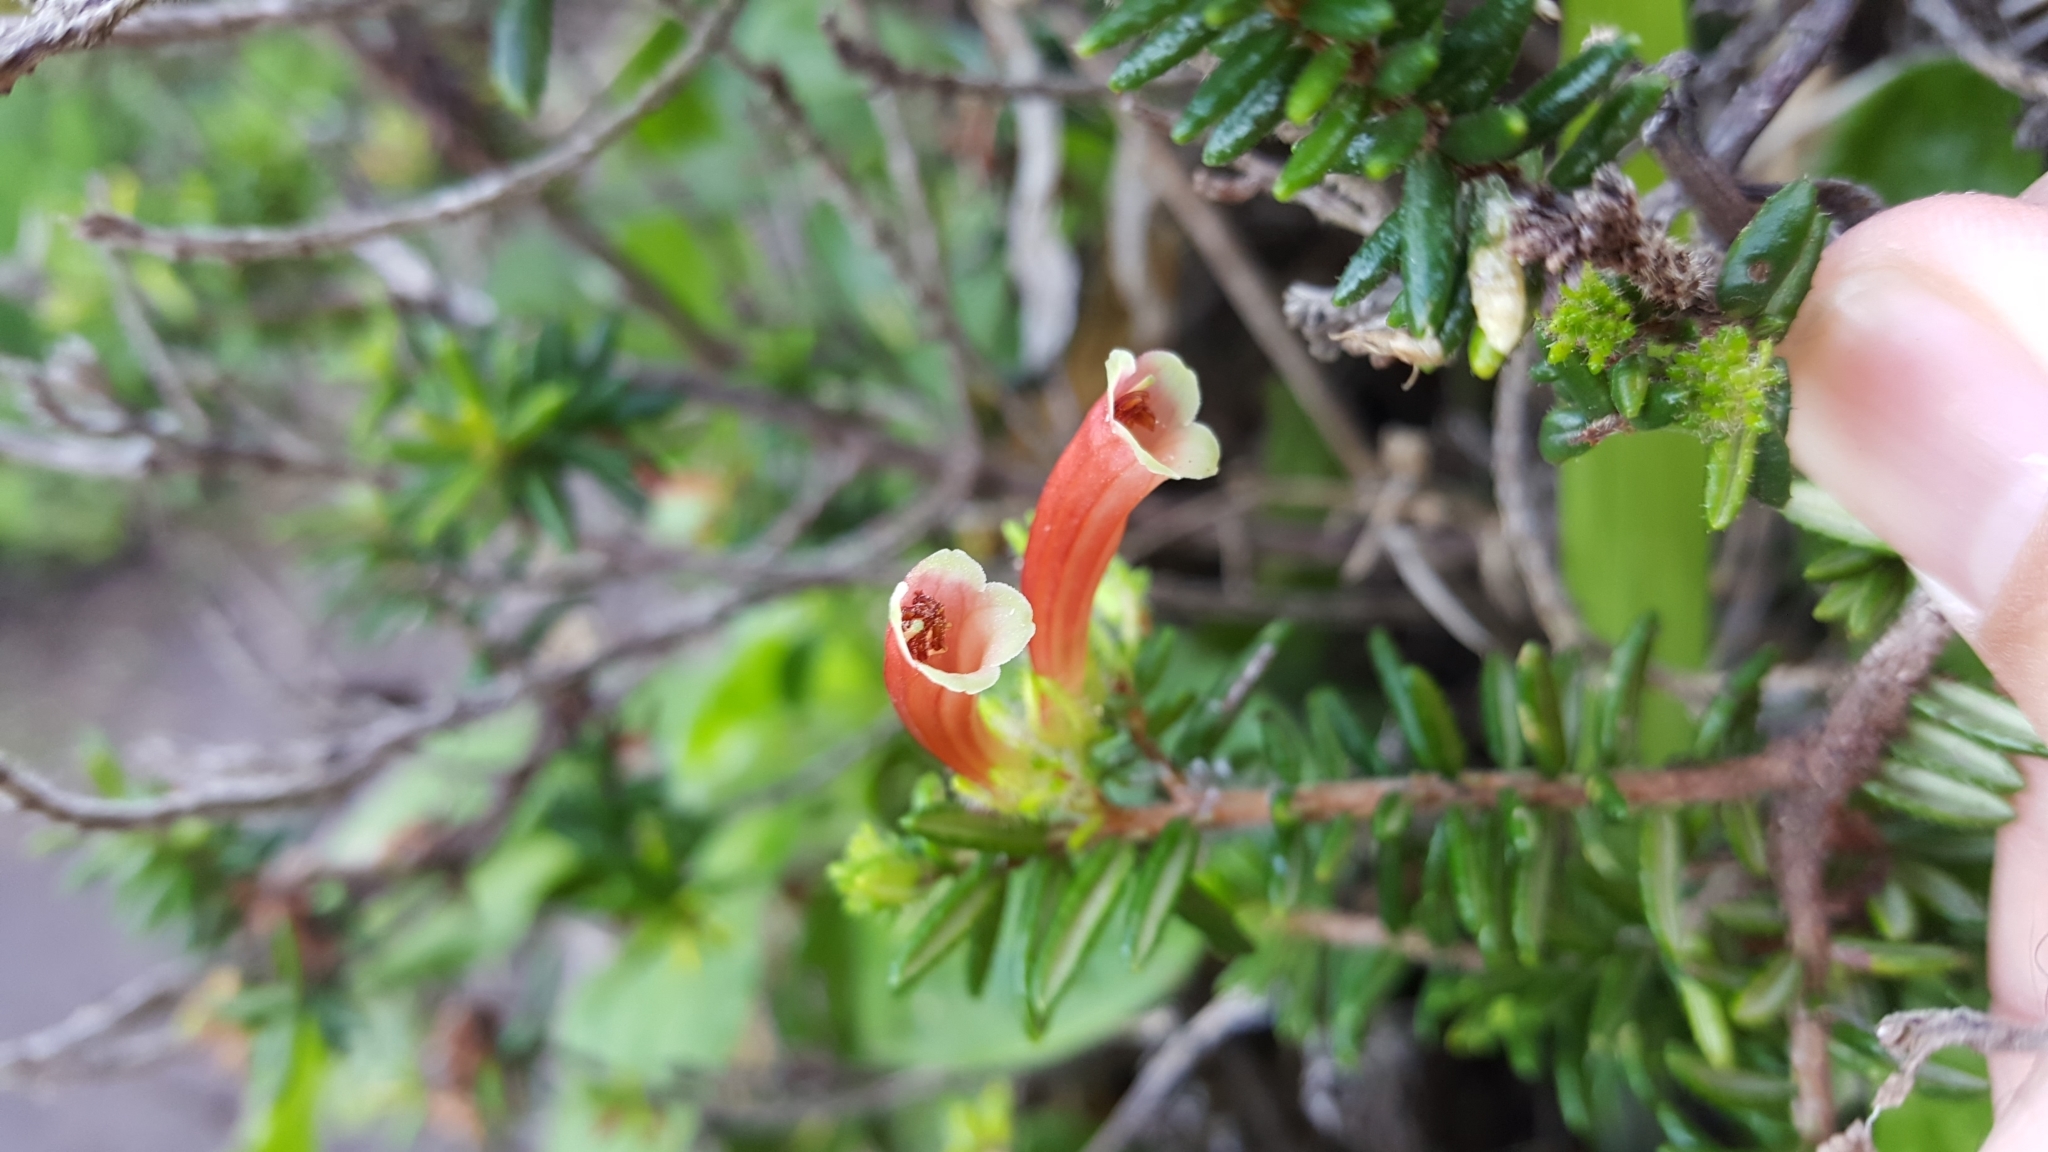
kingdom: Plantae
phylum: Tracheophyta
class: Magnoliopsida
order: Ericales
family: Ericaceae
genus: Erica
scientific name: Erica glandulosa
